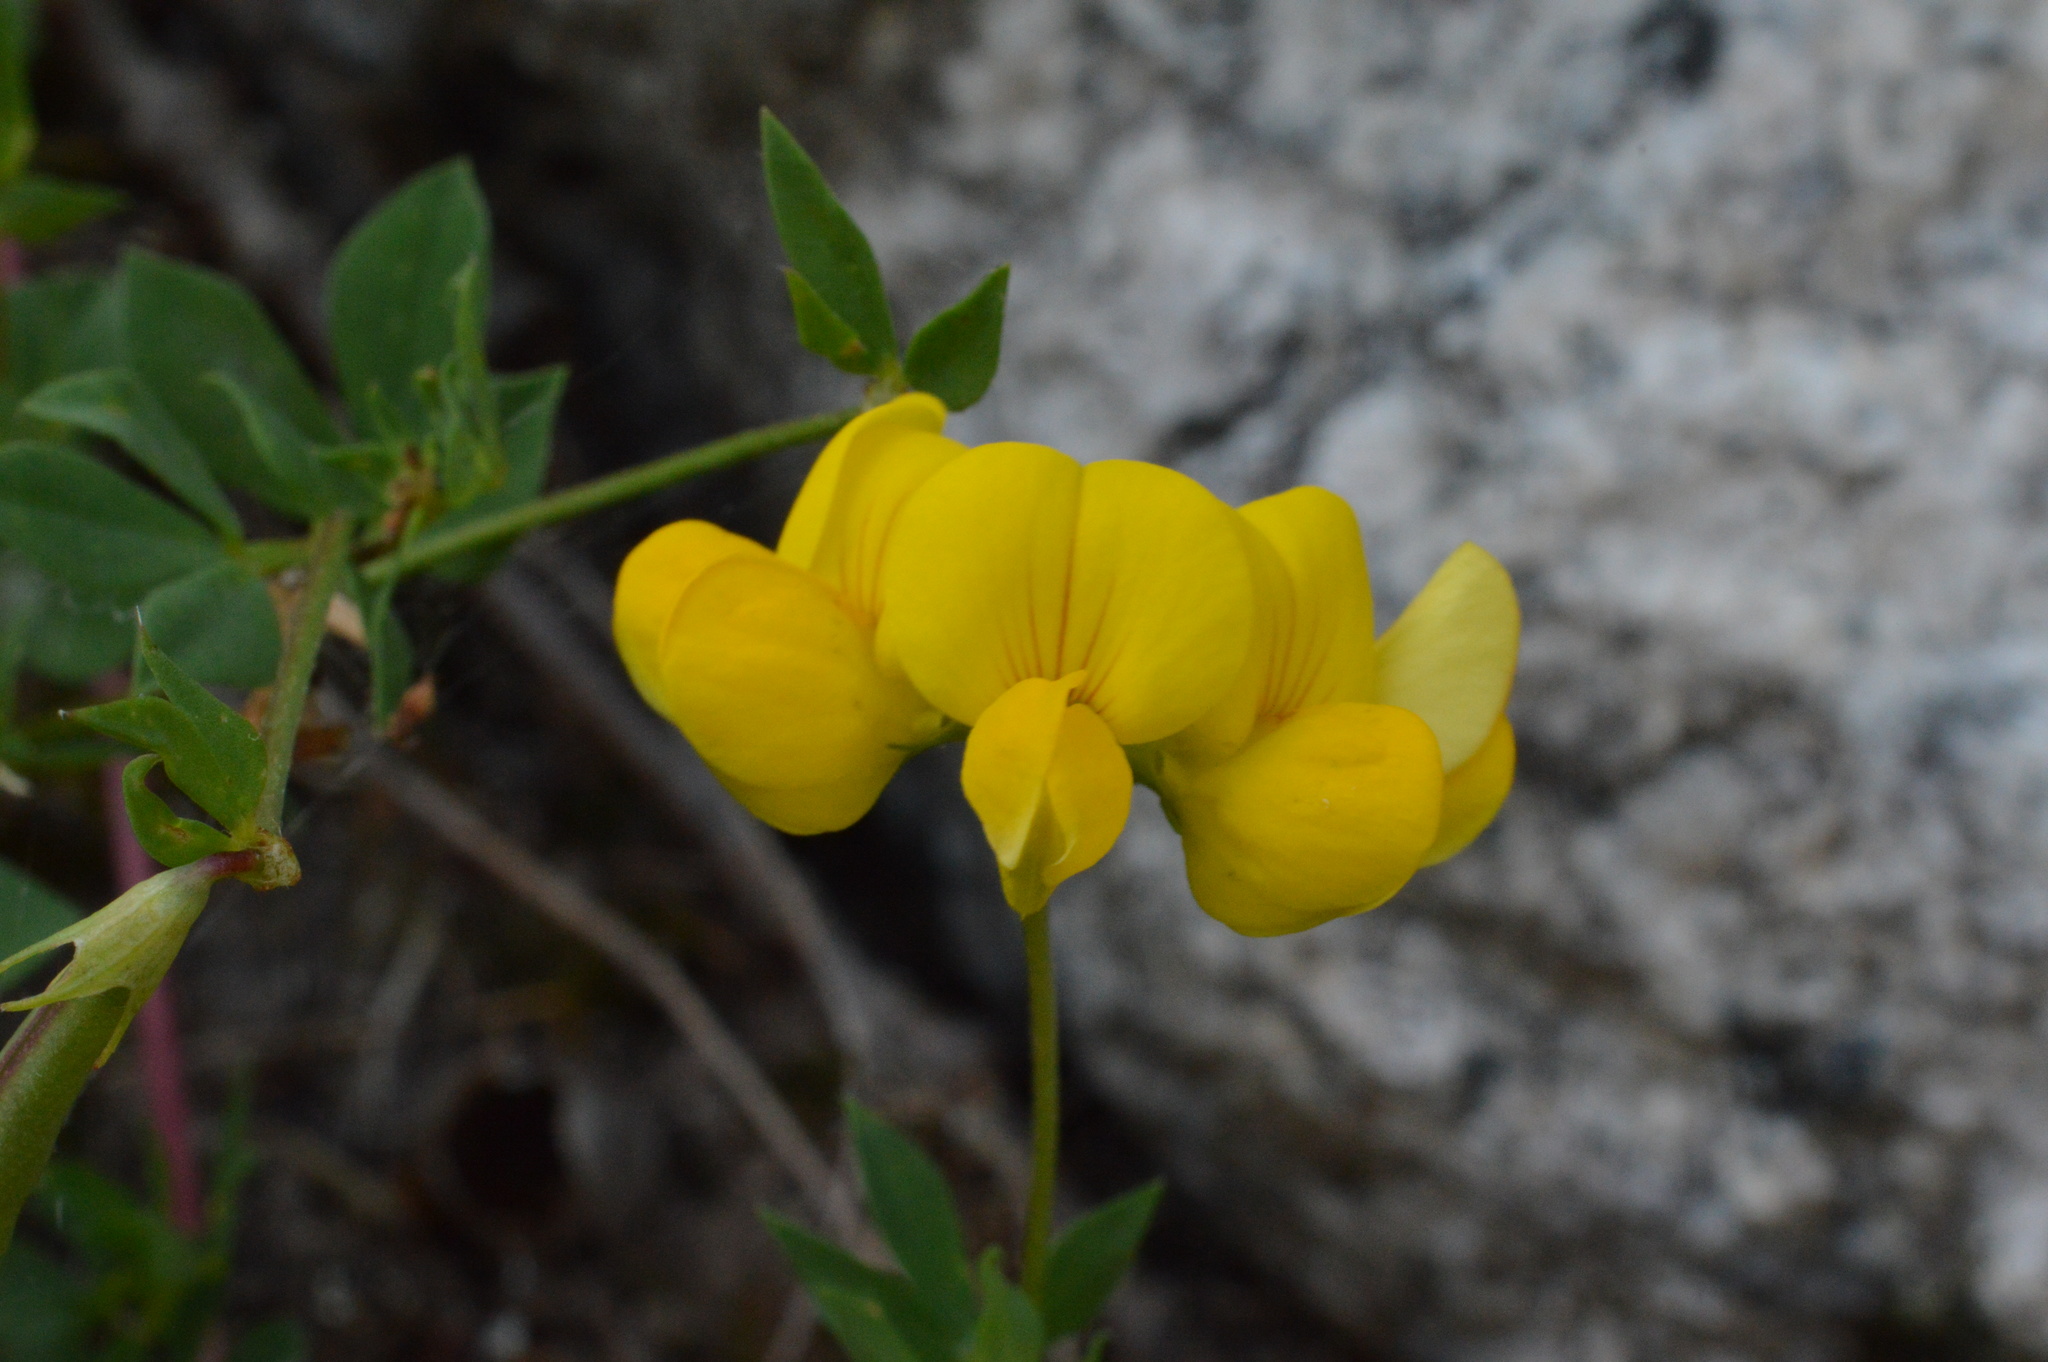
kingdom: Plantae
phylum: Tracheophyta
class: Magnoliopsida
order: Fabales
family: Fabaceae
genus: Lotus
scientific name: Lotus corniculatus
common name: Common bird's-foot-trefoil
